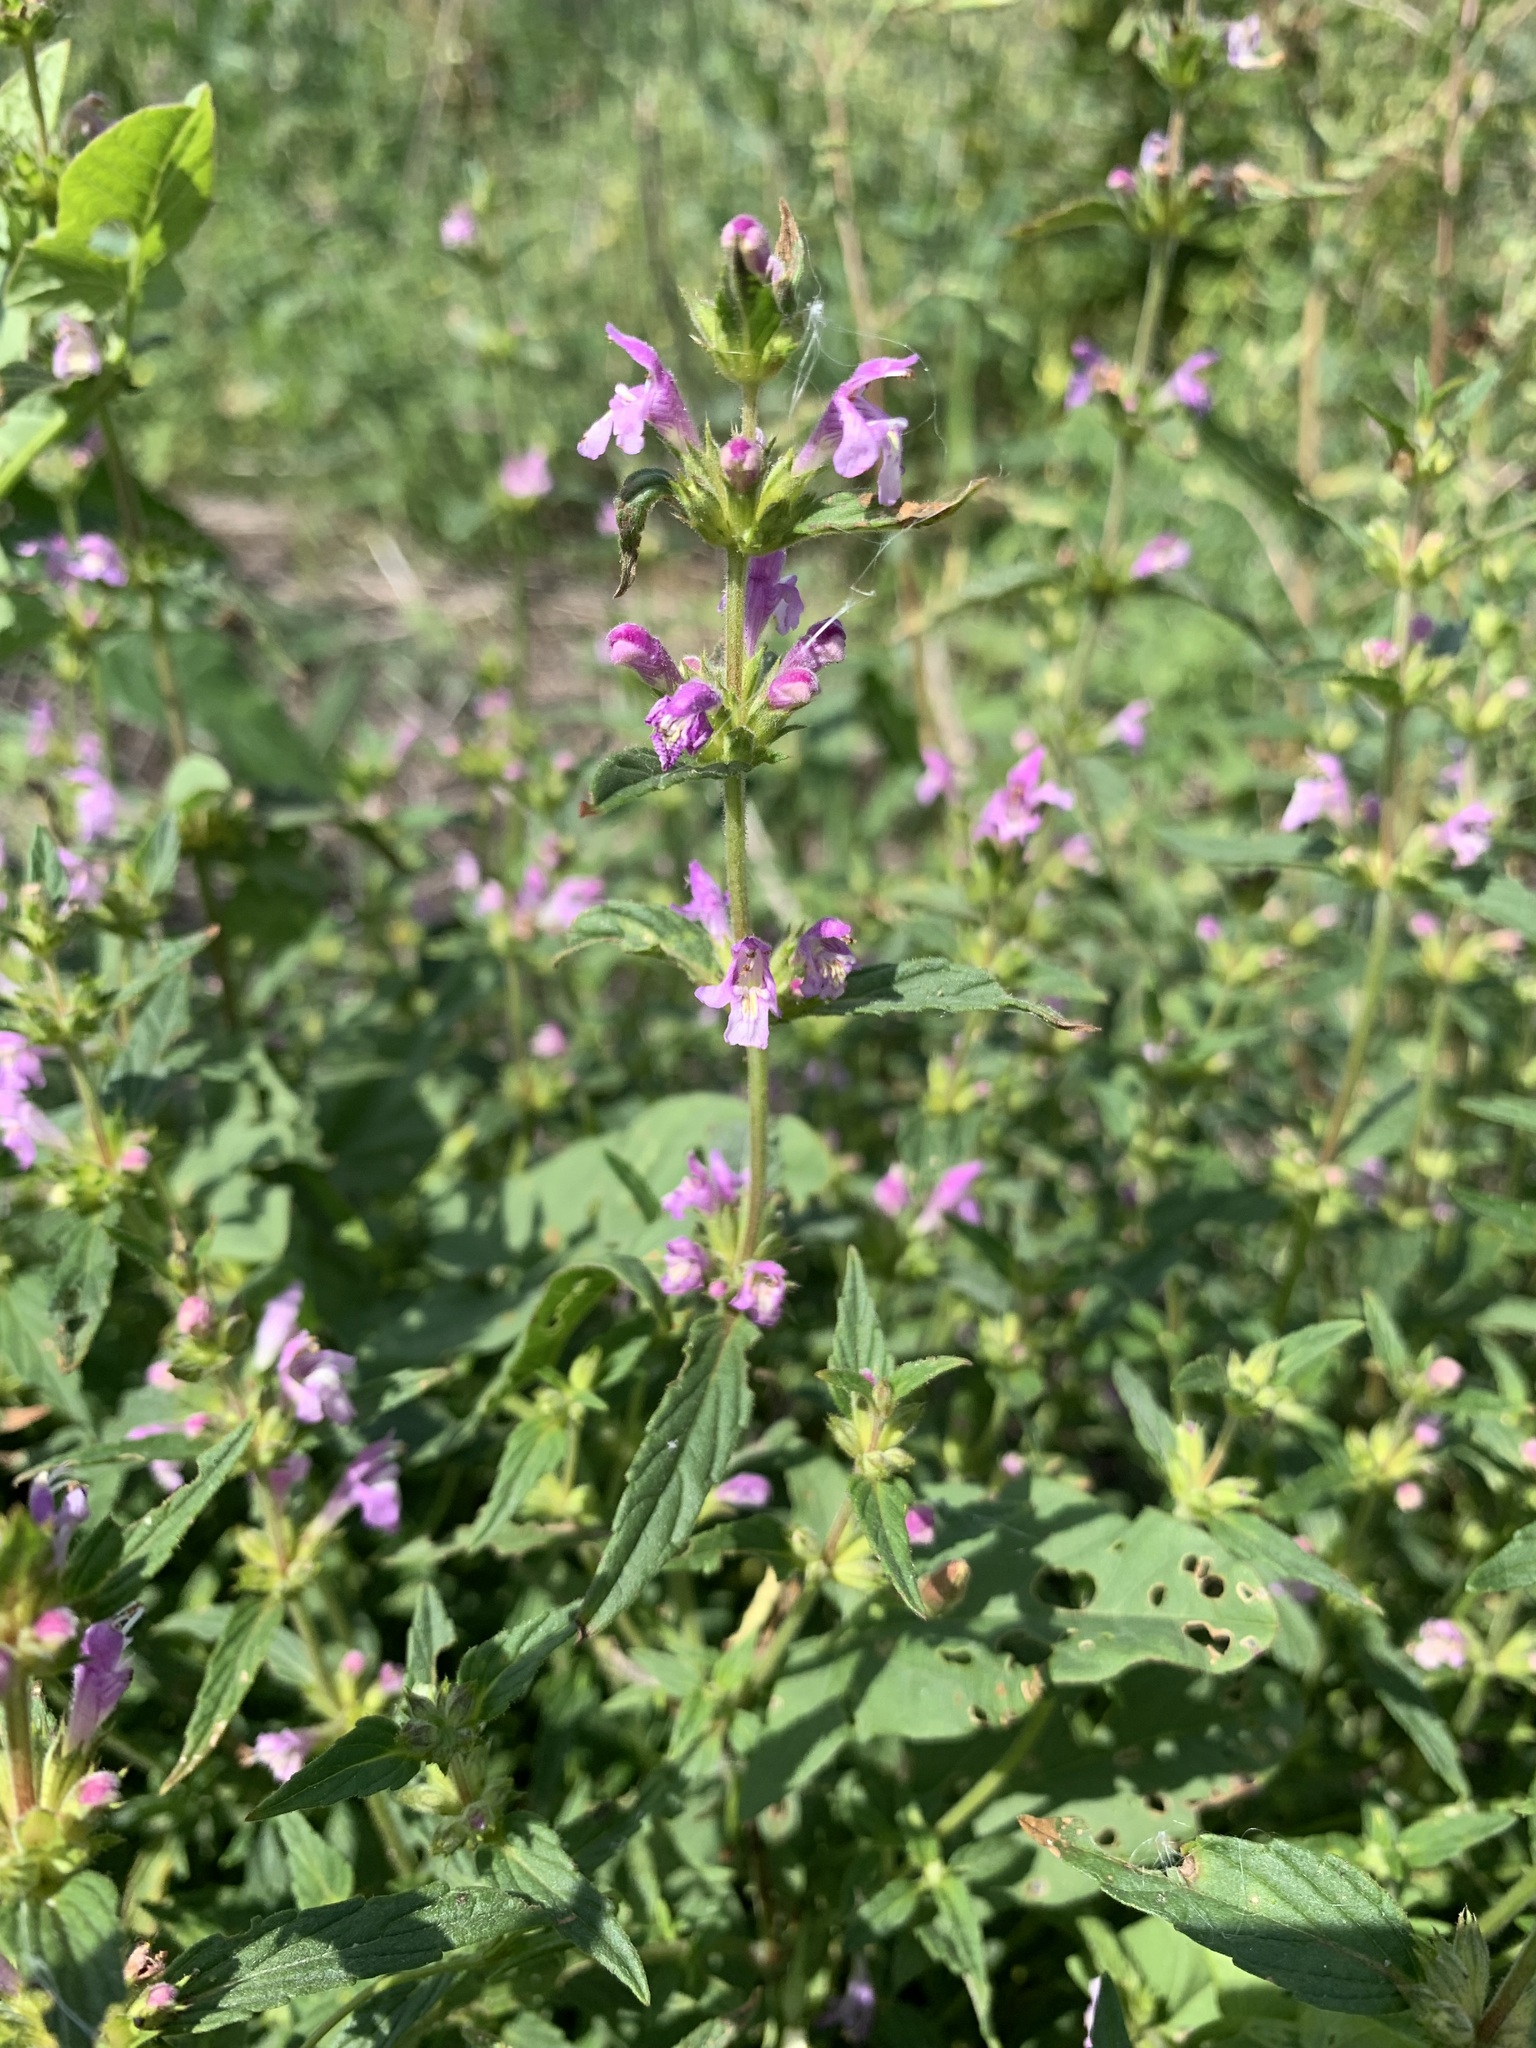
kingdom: Plantae
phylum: Tracheophyta
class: Magnoliopsida
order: Lamiales
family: Lamiaceae
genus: Galeopsis
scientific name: Galeopsis ladanum
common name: Broad-leaved hemp-nettle
